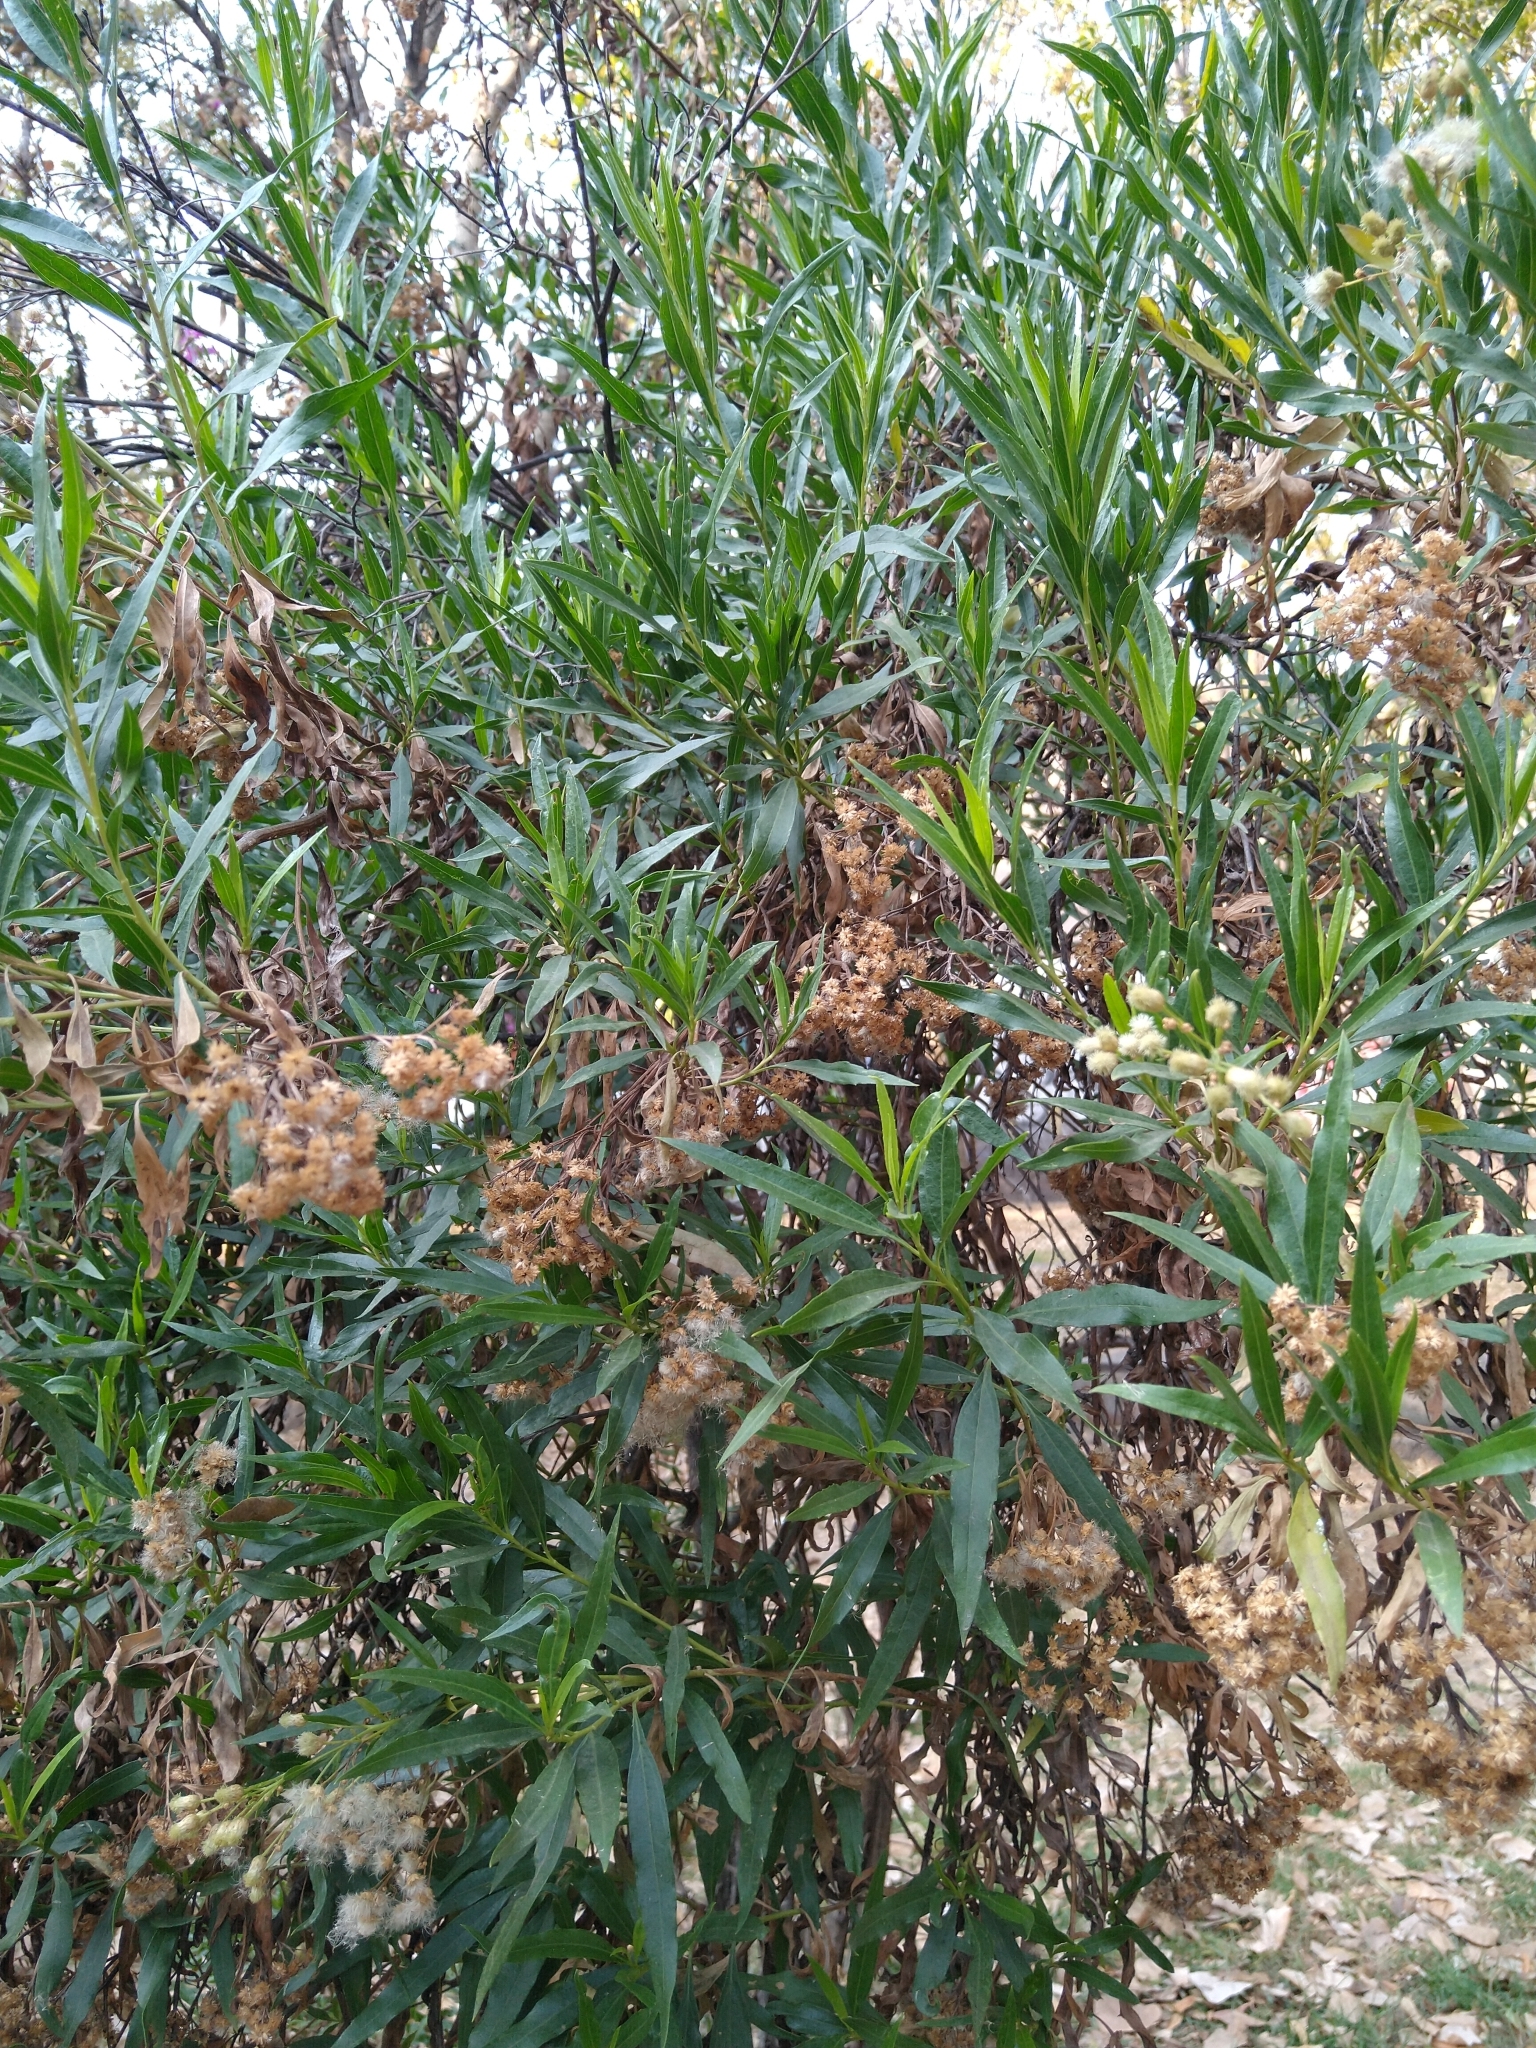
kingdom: Plantae
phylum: Tracheophyta
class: Magnoliopsida
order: Asterales
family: Asteraceae
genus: Baccharis
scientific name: Baccharis salicifolia
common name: Sticky baccharis
